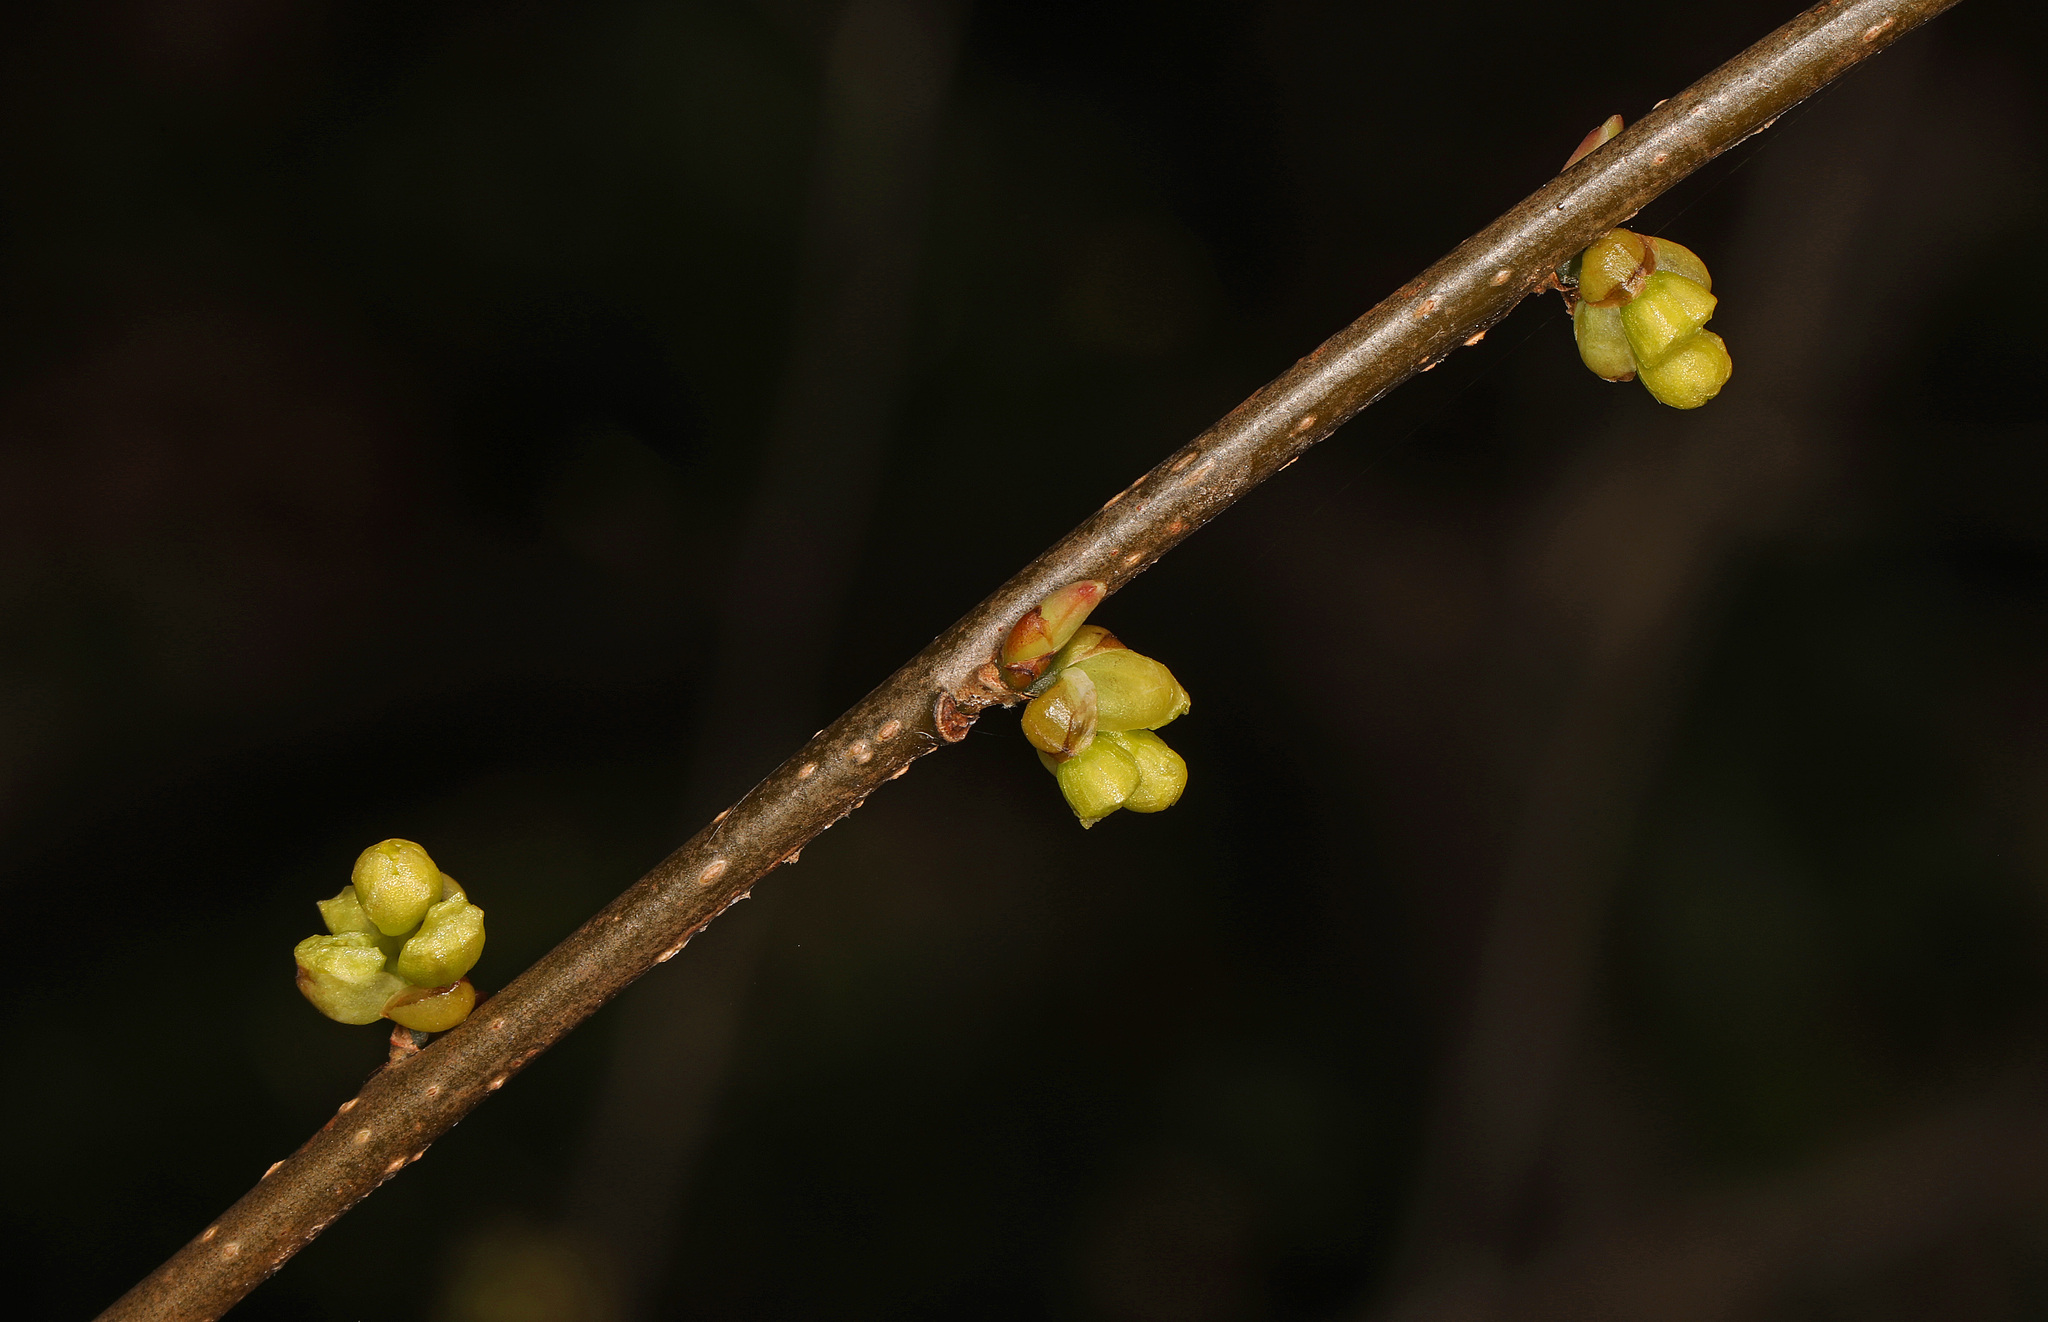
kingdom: Plantae
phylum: Tracheophyta
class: Magnoliopsida
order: Laurales
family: Lauraceae
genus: Lindera
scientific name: Lindera benzoin
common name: Spicebush
